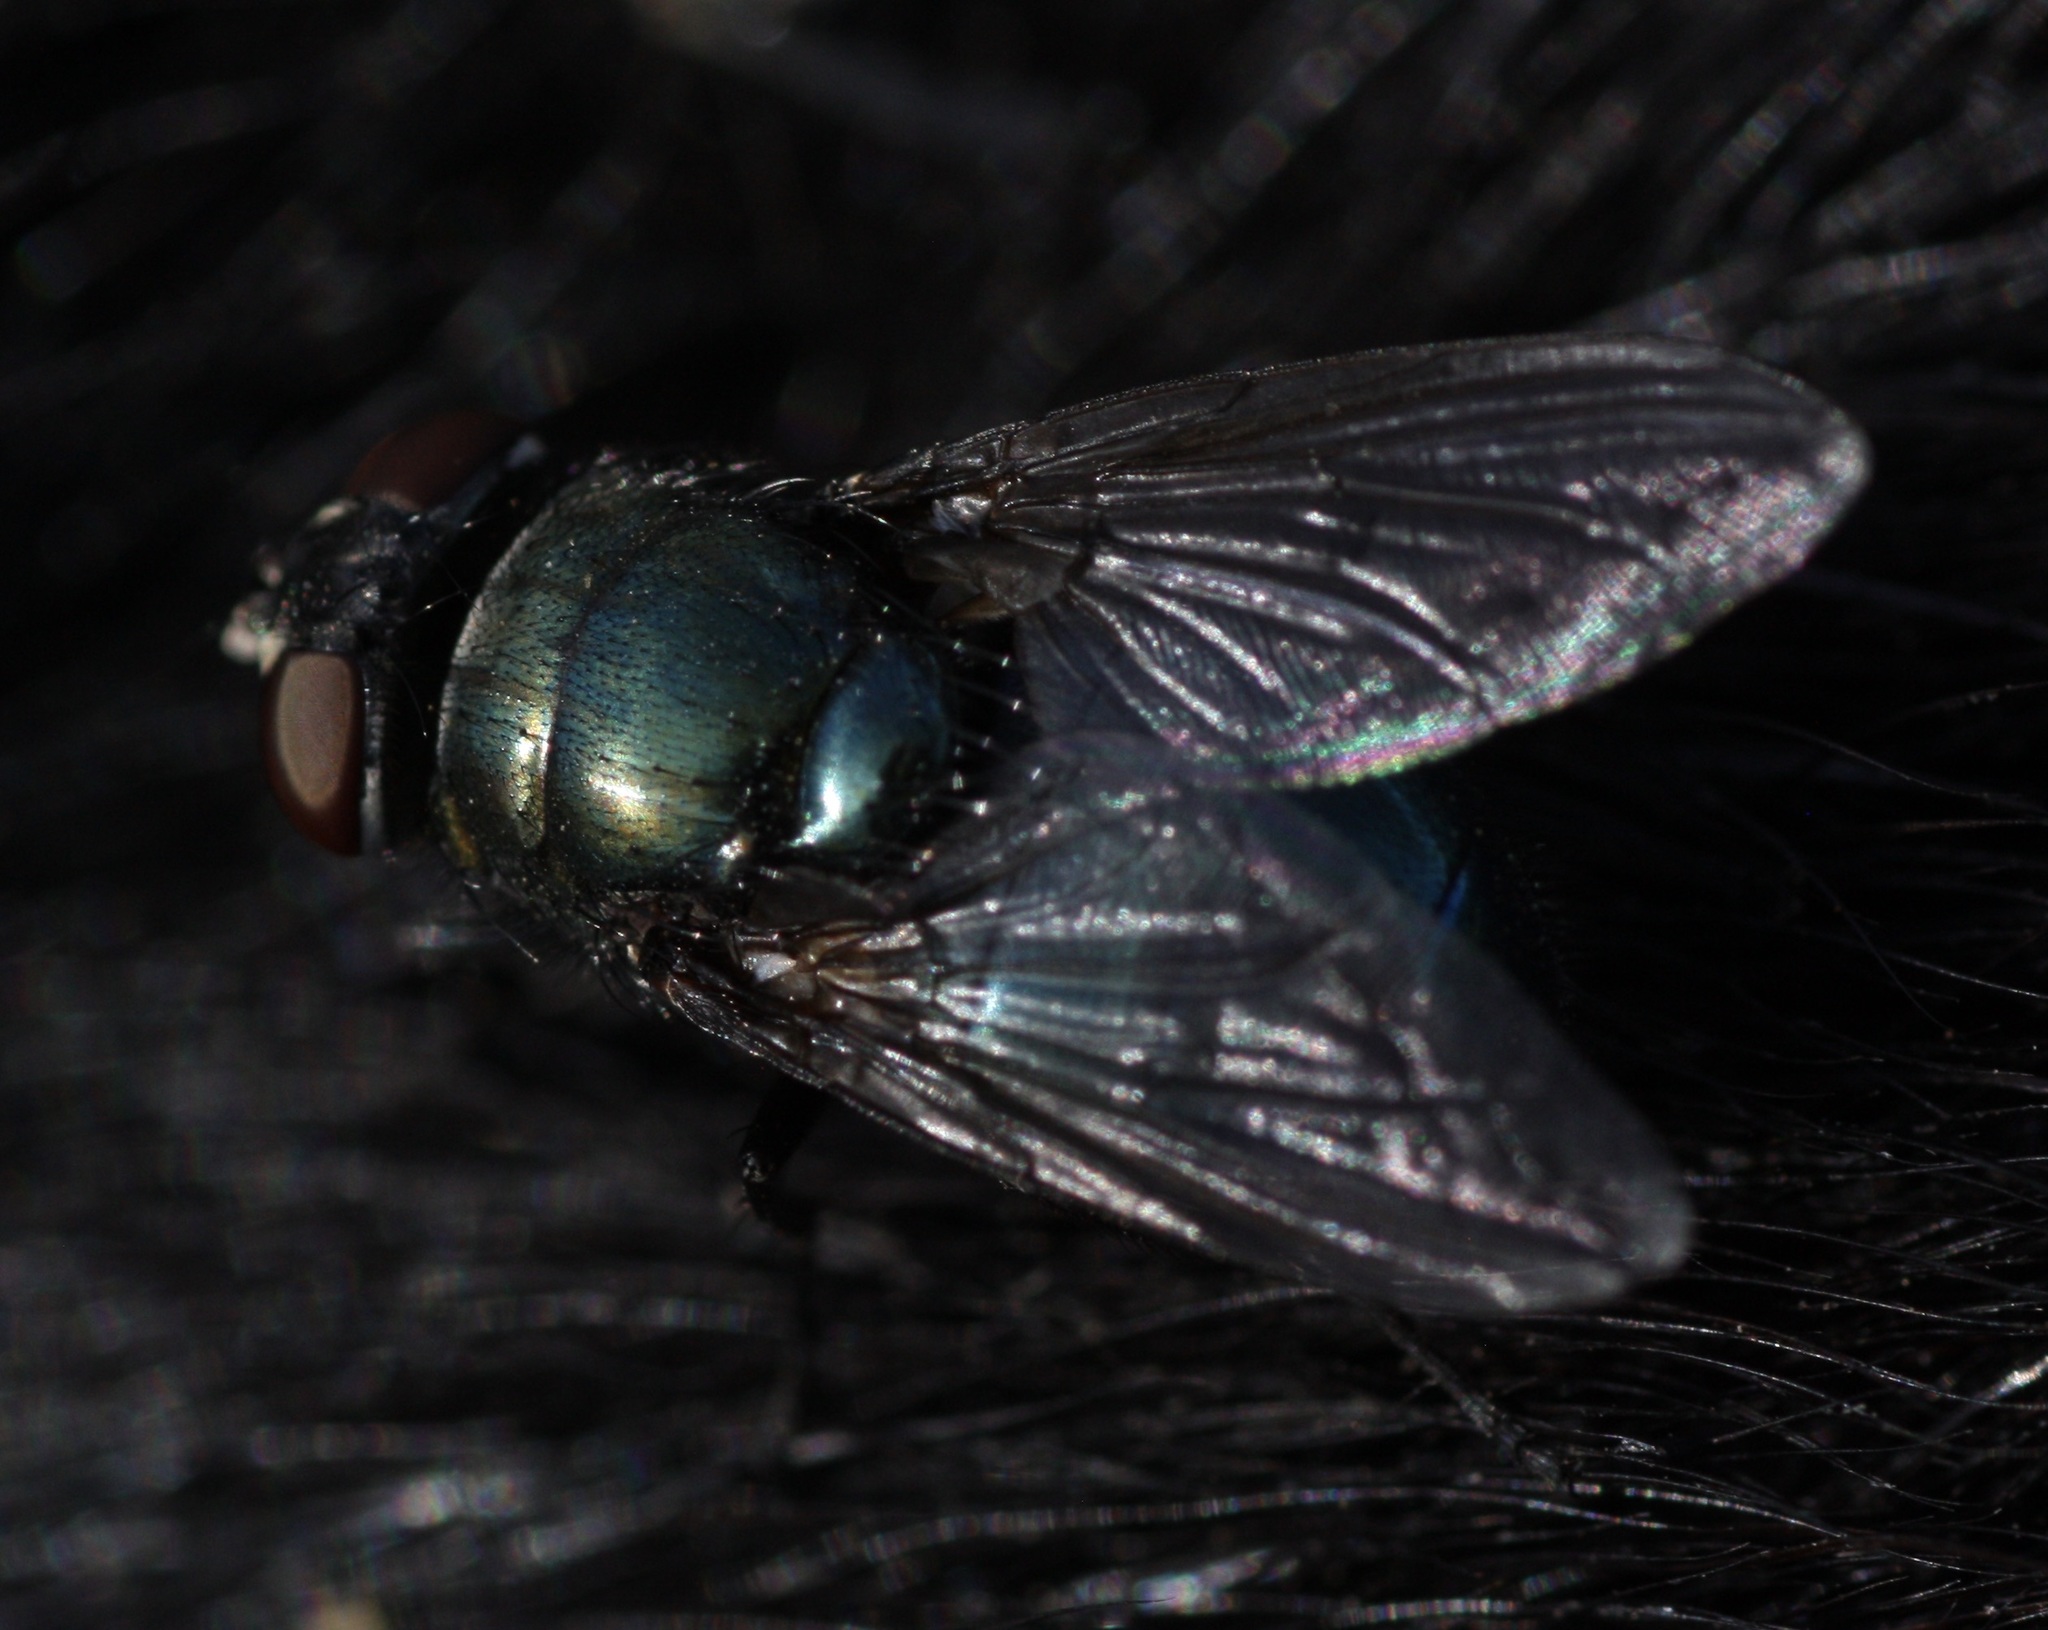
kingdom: Animalia
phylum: Arthropoda
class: Insecta
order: Diptera
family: Calliphoridae
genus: Phormia
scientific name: Phormia regina
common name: Black blow fly
